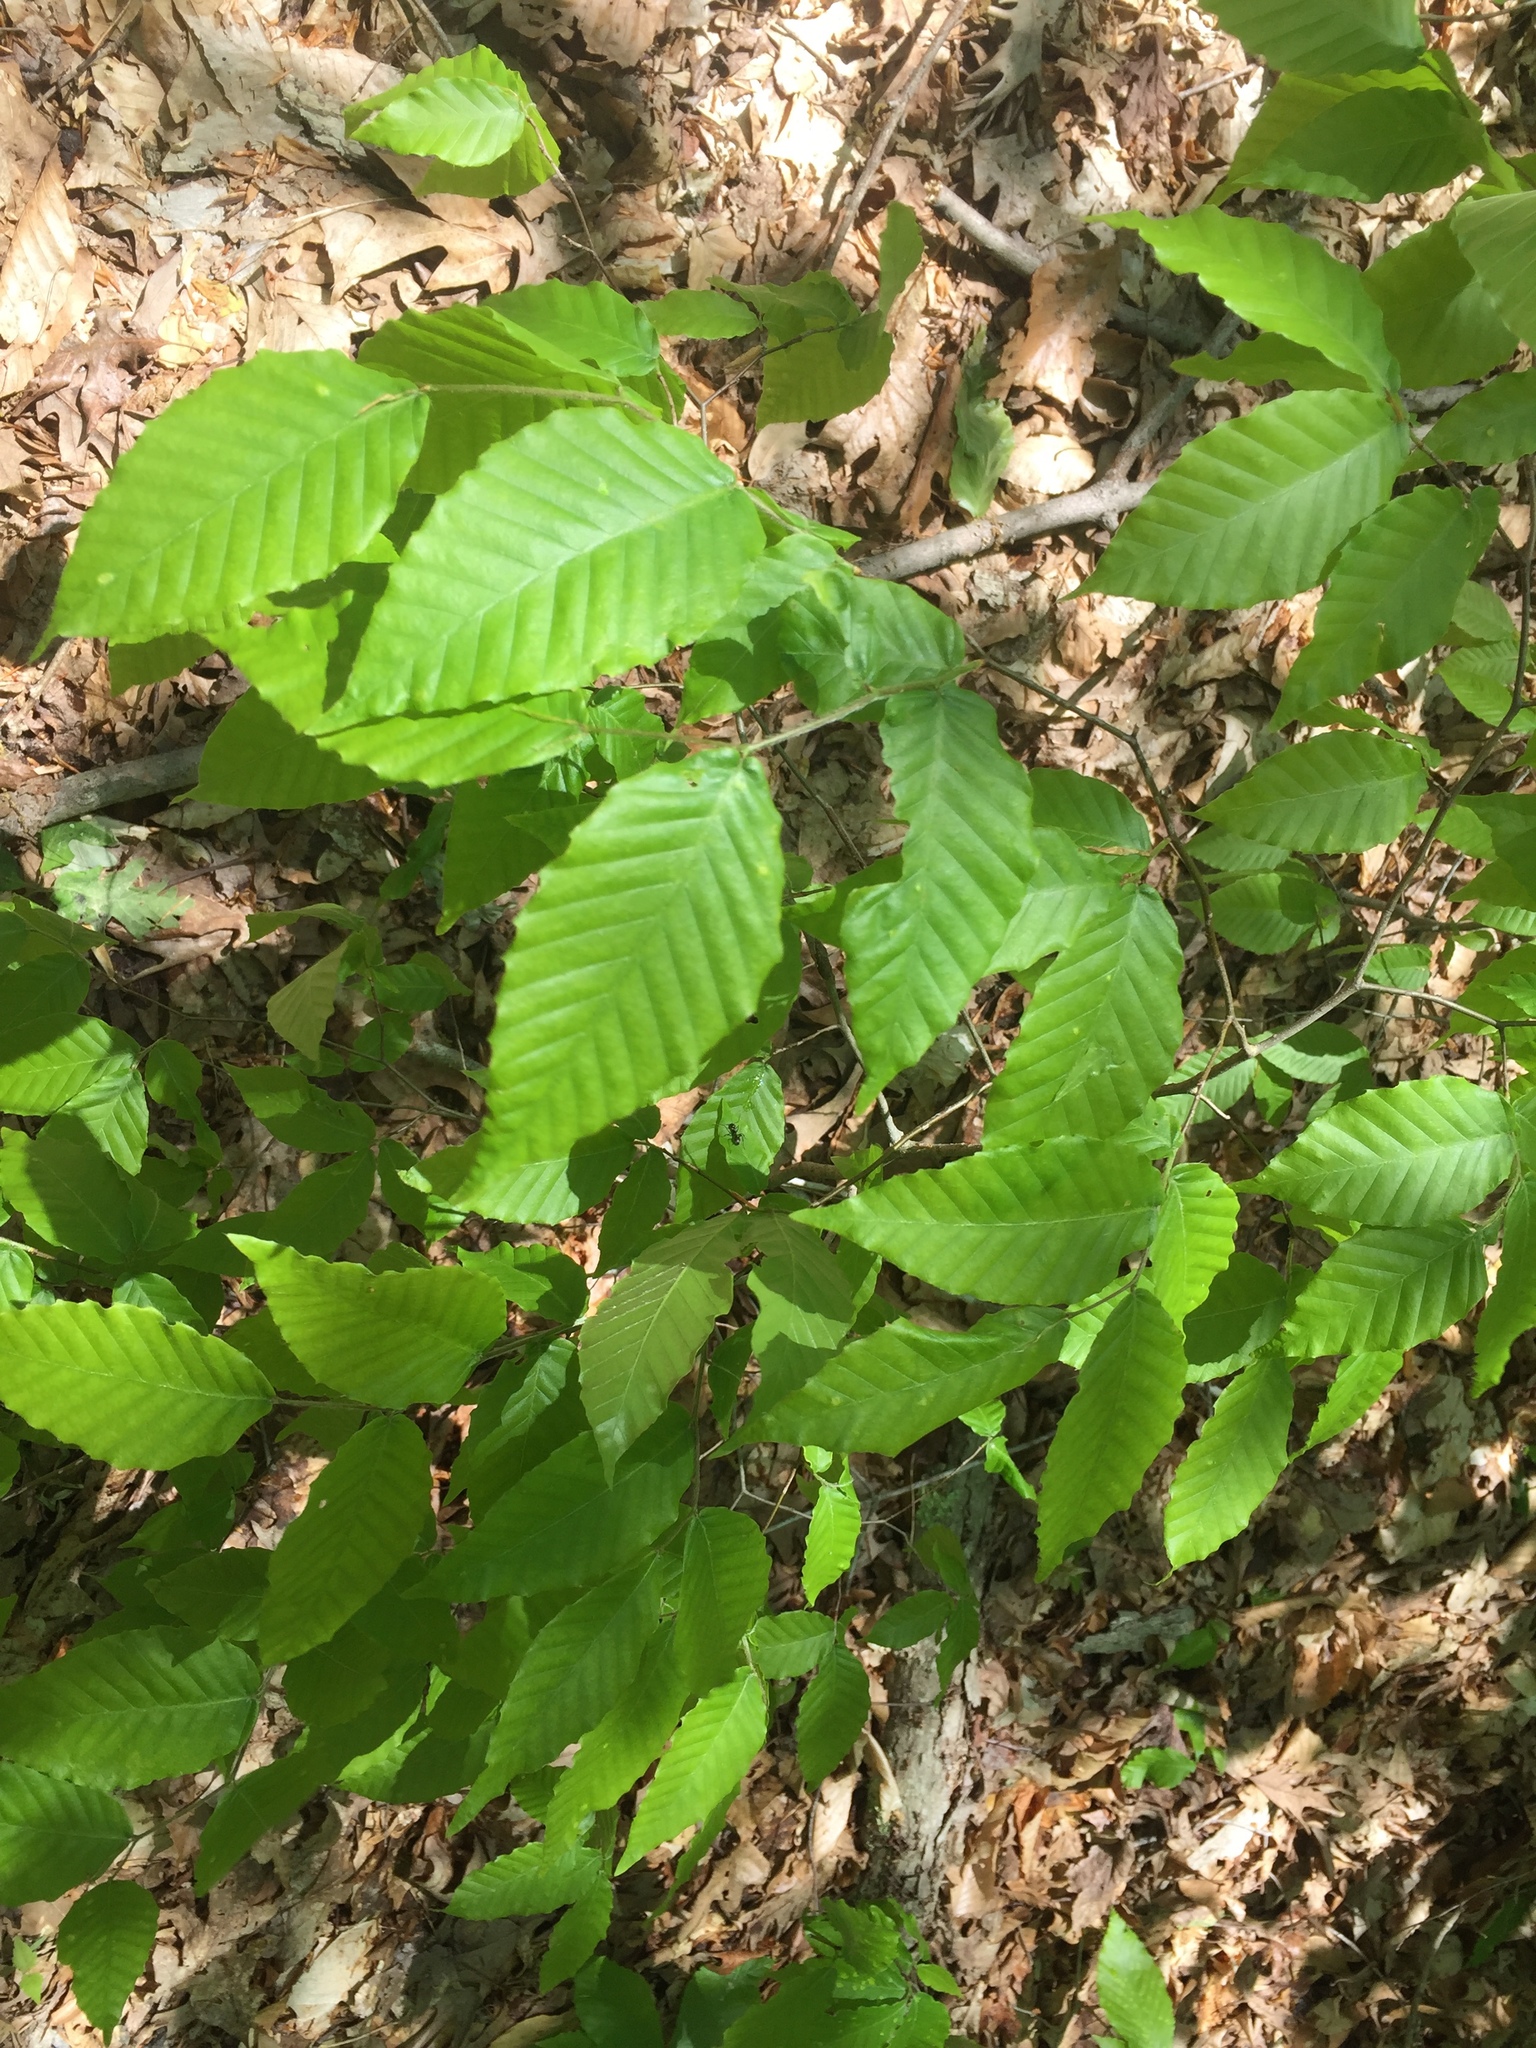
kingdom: Plantae
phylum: Tracheophyta
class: Magnoliopsida
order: Fagales
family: Fagaceae
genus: Fagus
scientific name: Fagus grandifolia
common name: American beech
